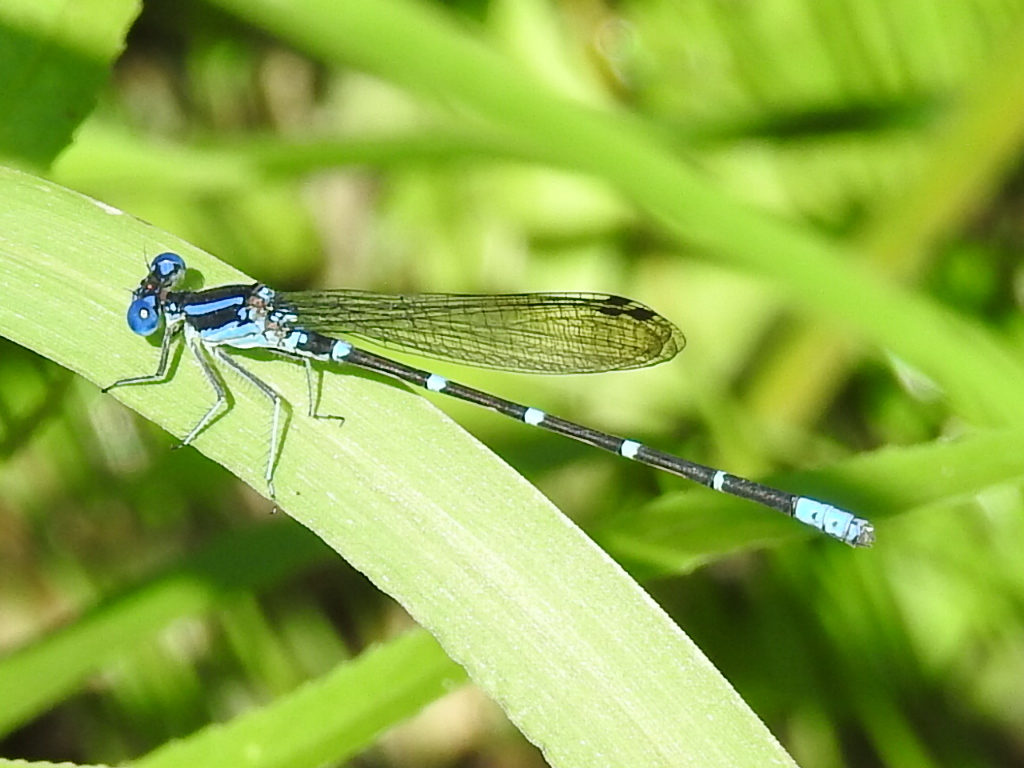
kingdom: Animalia
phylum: Arthropoda
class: Insecta
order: Odonata
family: Coenagrionidae
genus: Argia
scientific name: Argia sedula
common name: Blue-ringed dancer
